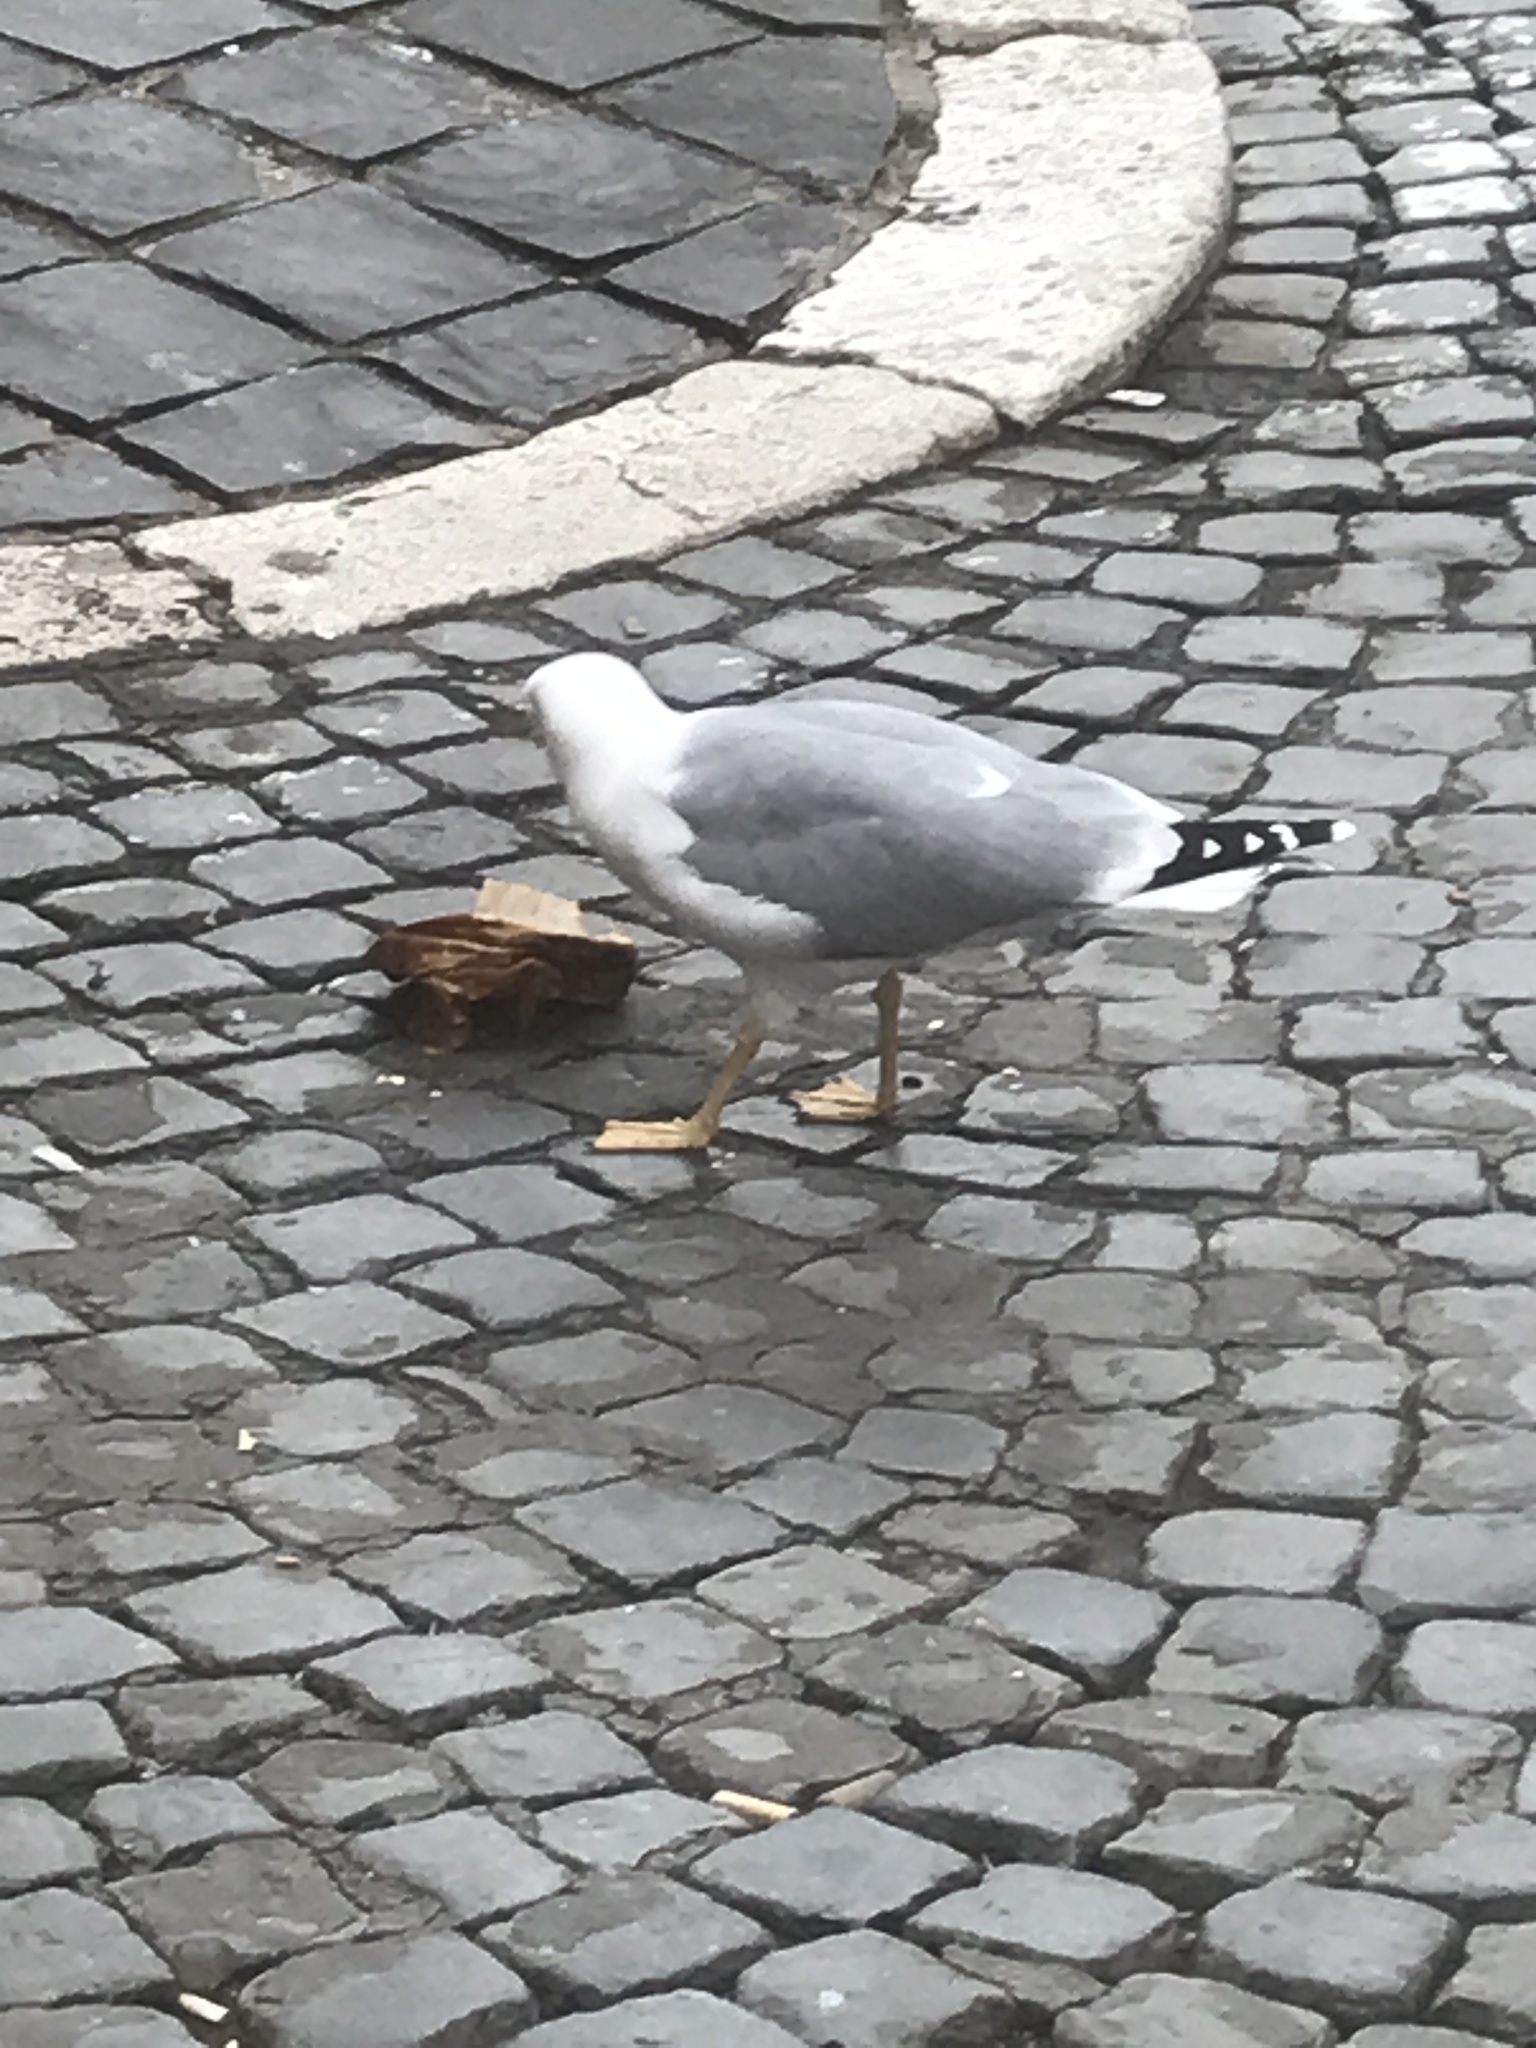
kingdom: Animalia
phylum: Chordata
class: Aves
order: Charadriiformes
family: Laridae
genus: Larus
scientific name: Larus michahellis
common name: Yellow-legged gull
